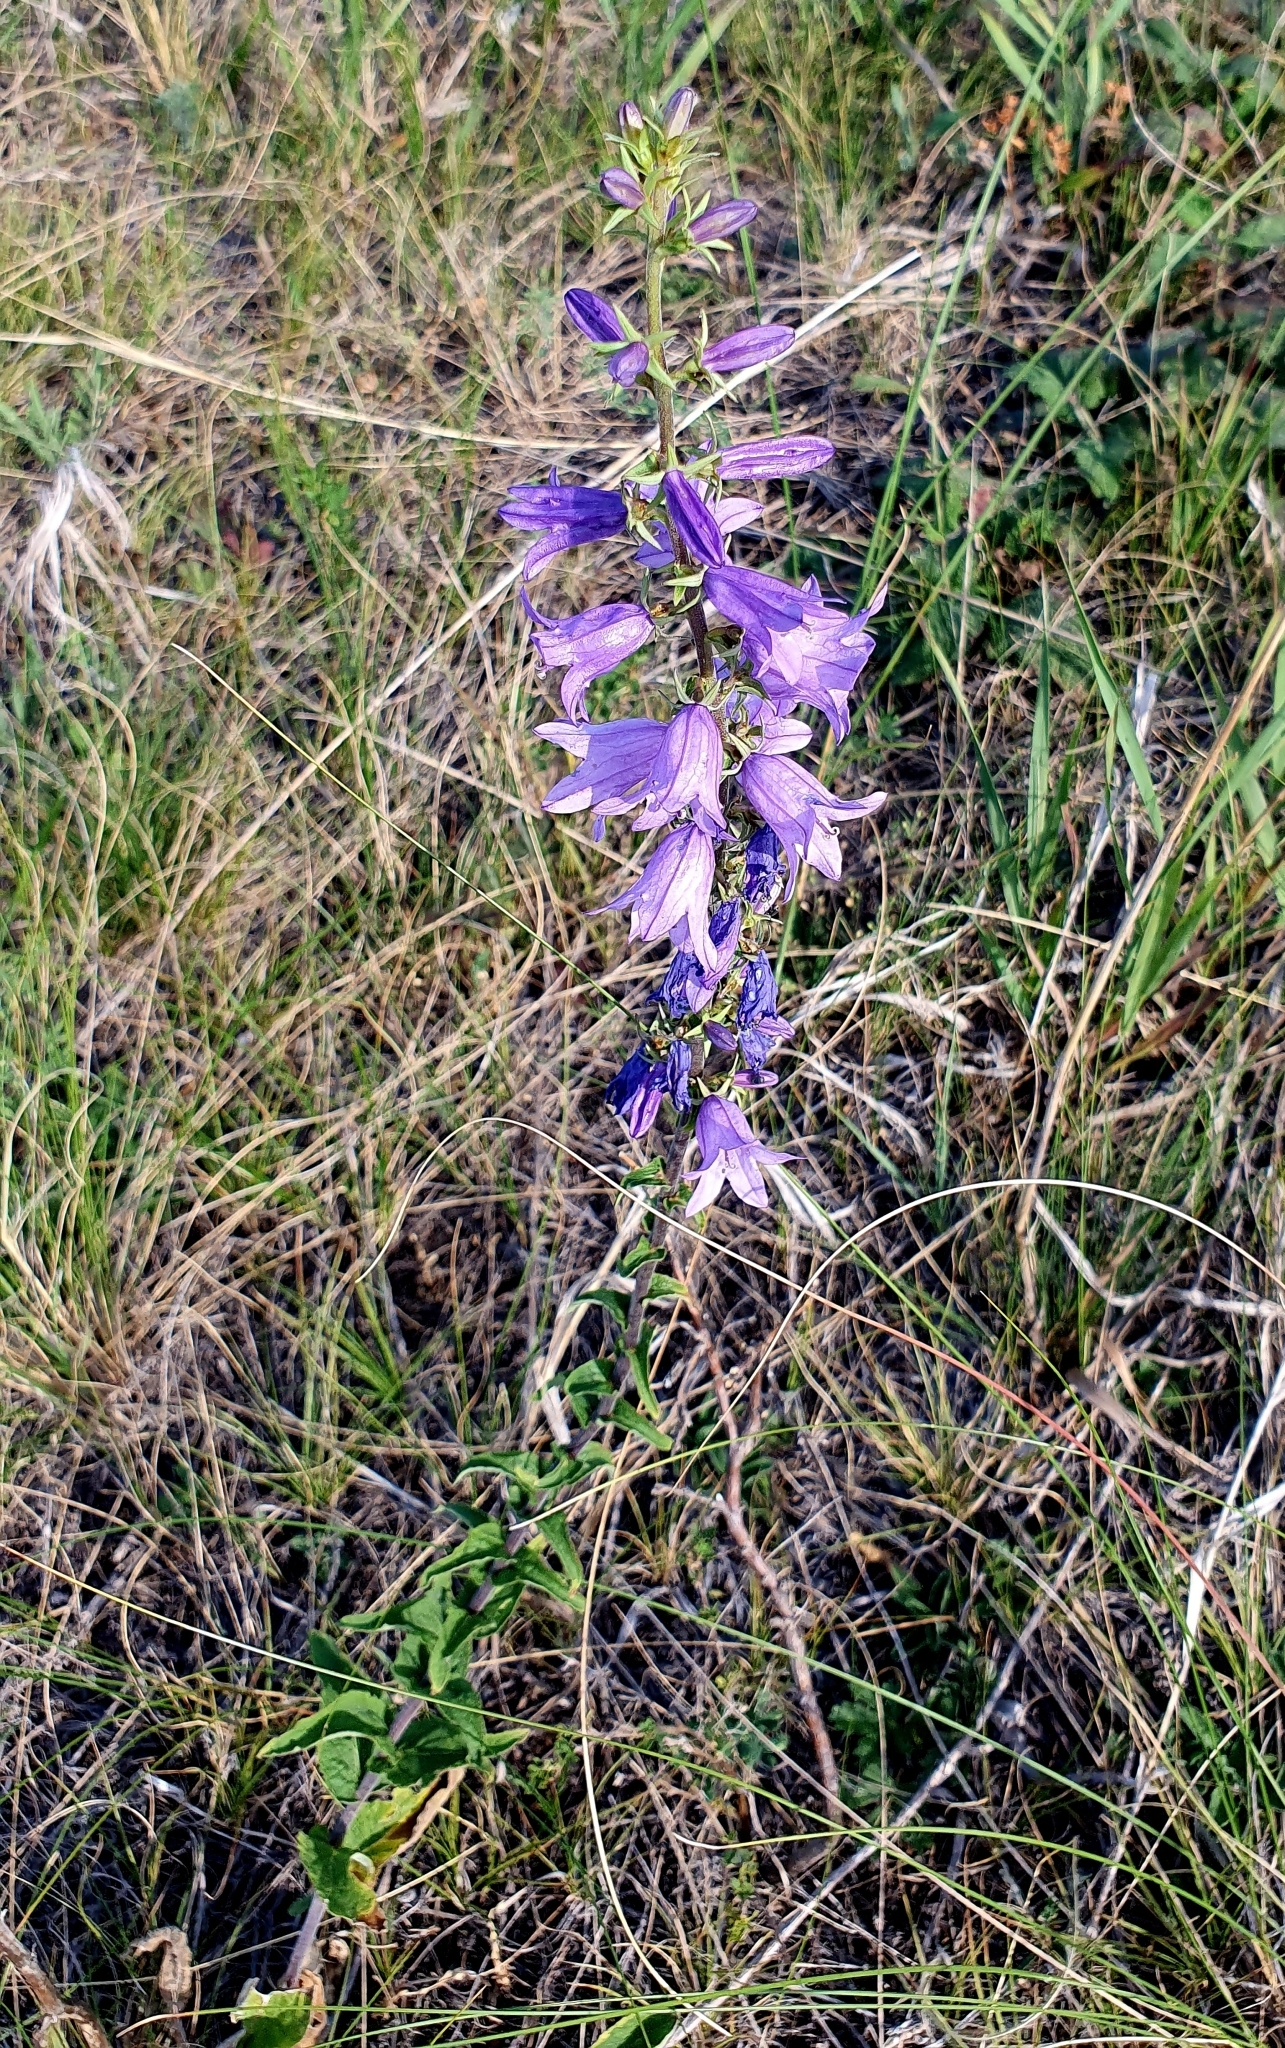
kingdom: Plantae
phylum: Tracheophyta
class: Magnoliopsida
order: Asterales
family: Campanulaceae
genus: Campanula
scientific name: Campanula bononiensis
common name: Pale bellflower
